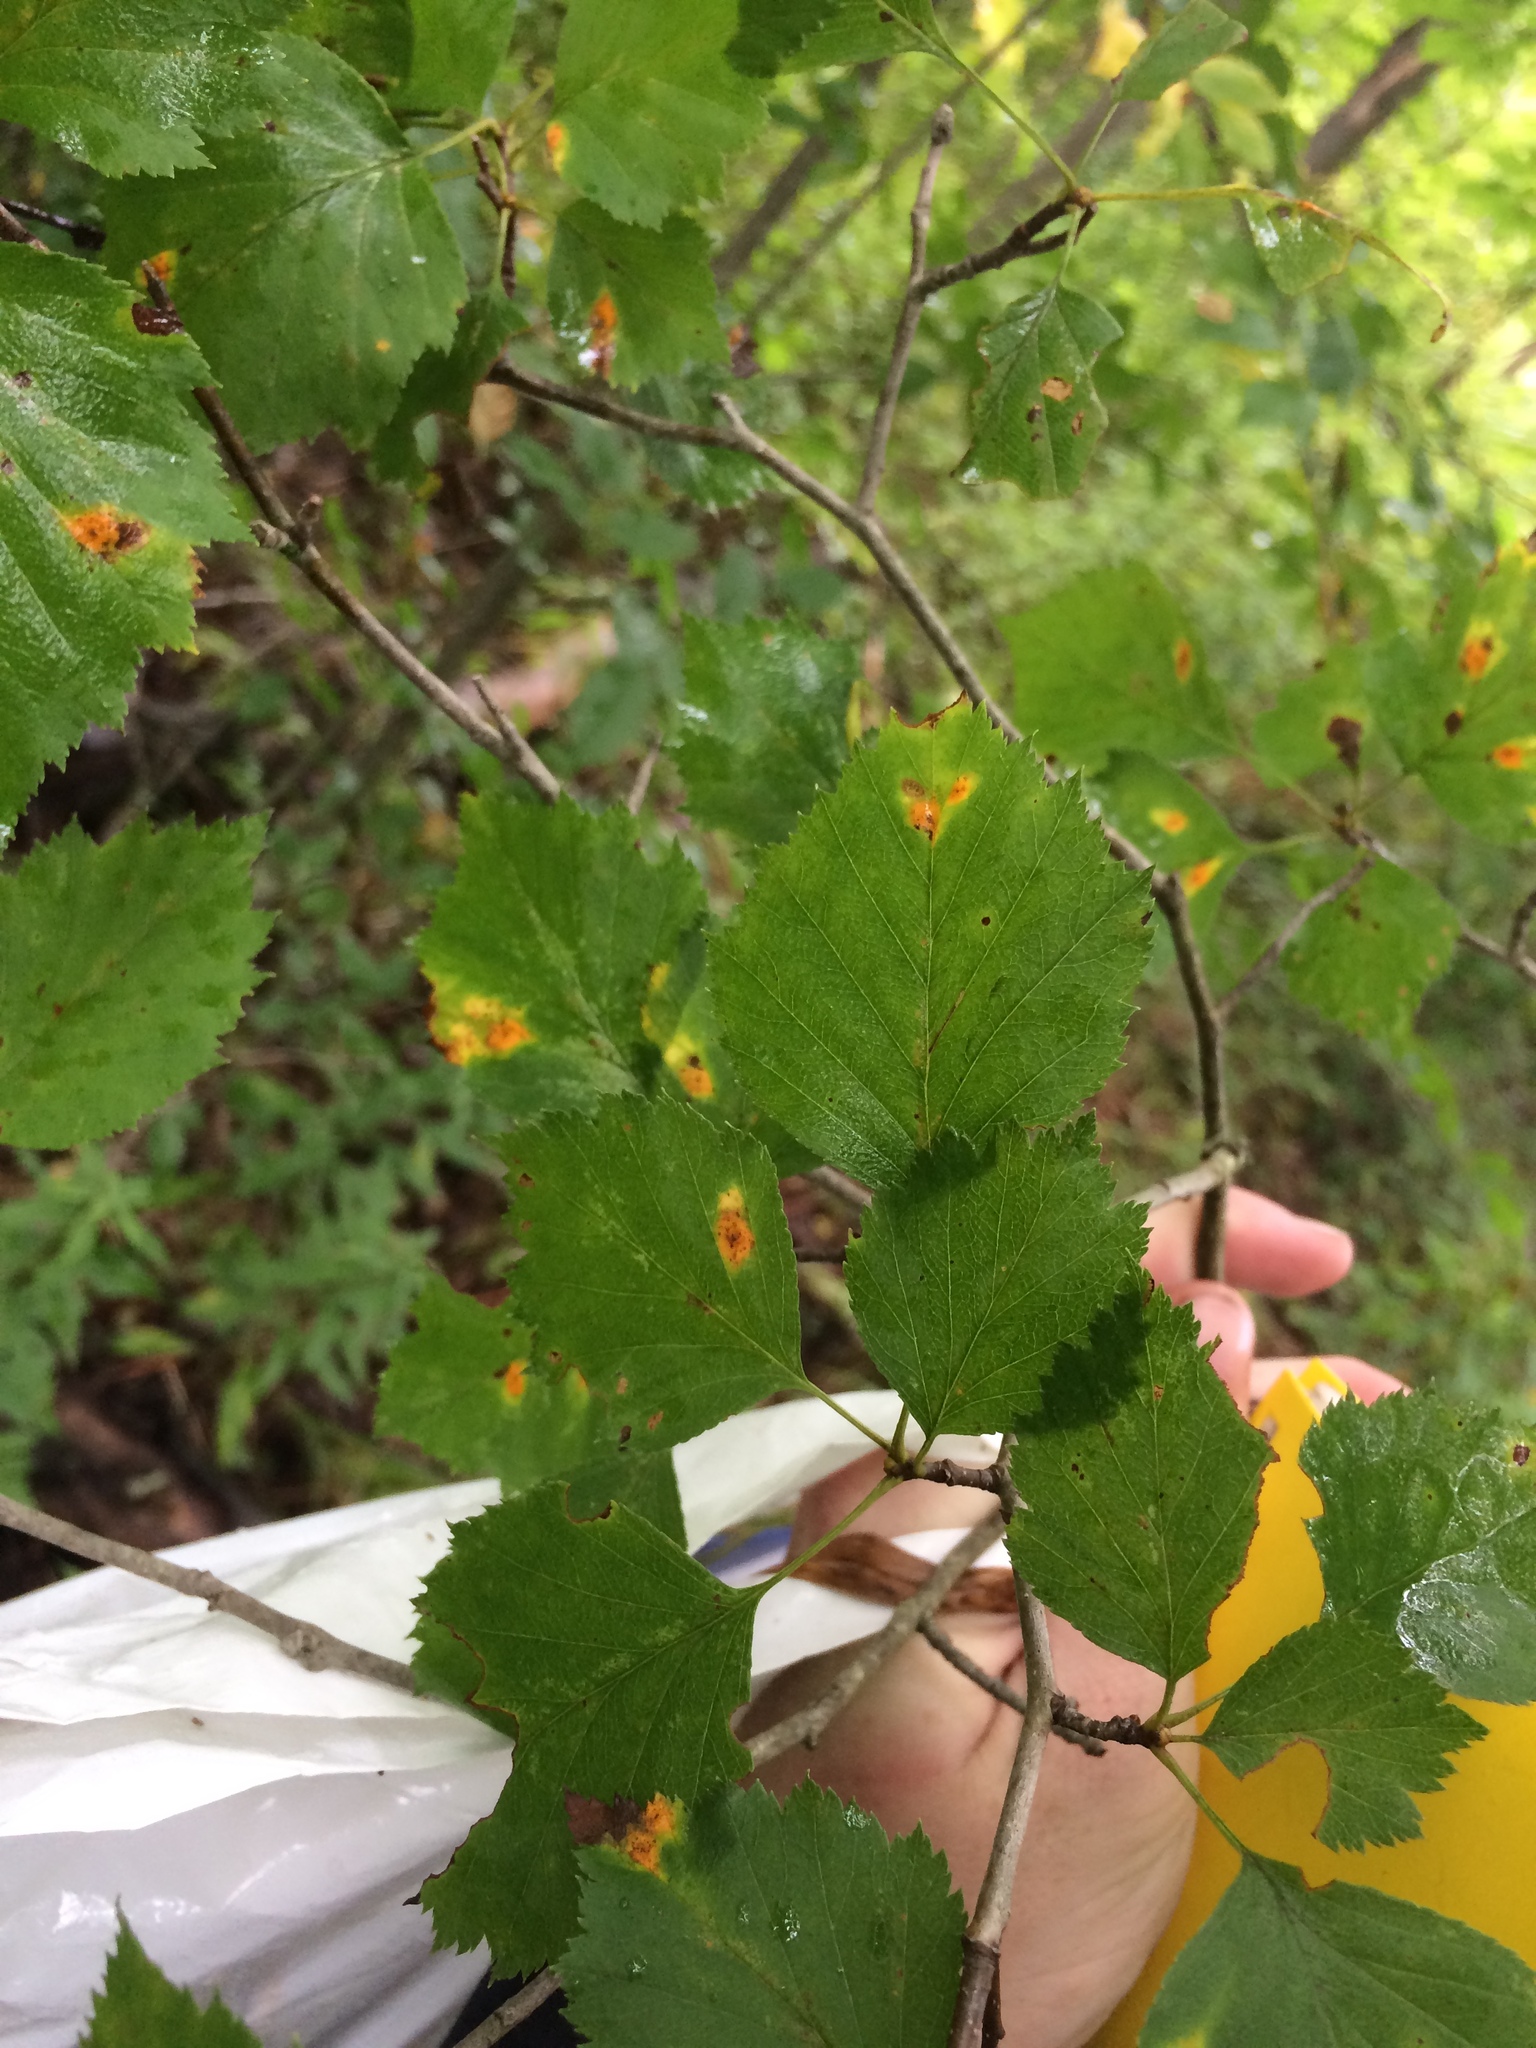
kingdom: Plantae
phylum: Tracheophyta
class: Magnoliopsida
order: Rosales
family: Rosaceae
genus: Crataegus
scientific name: Crataegus
